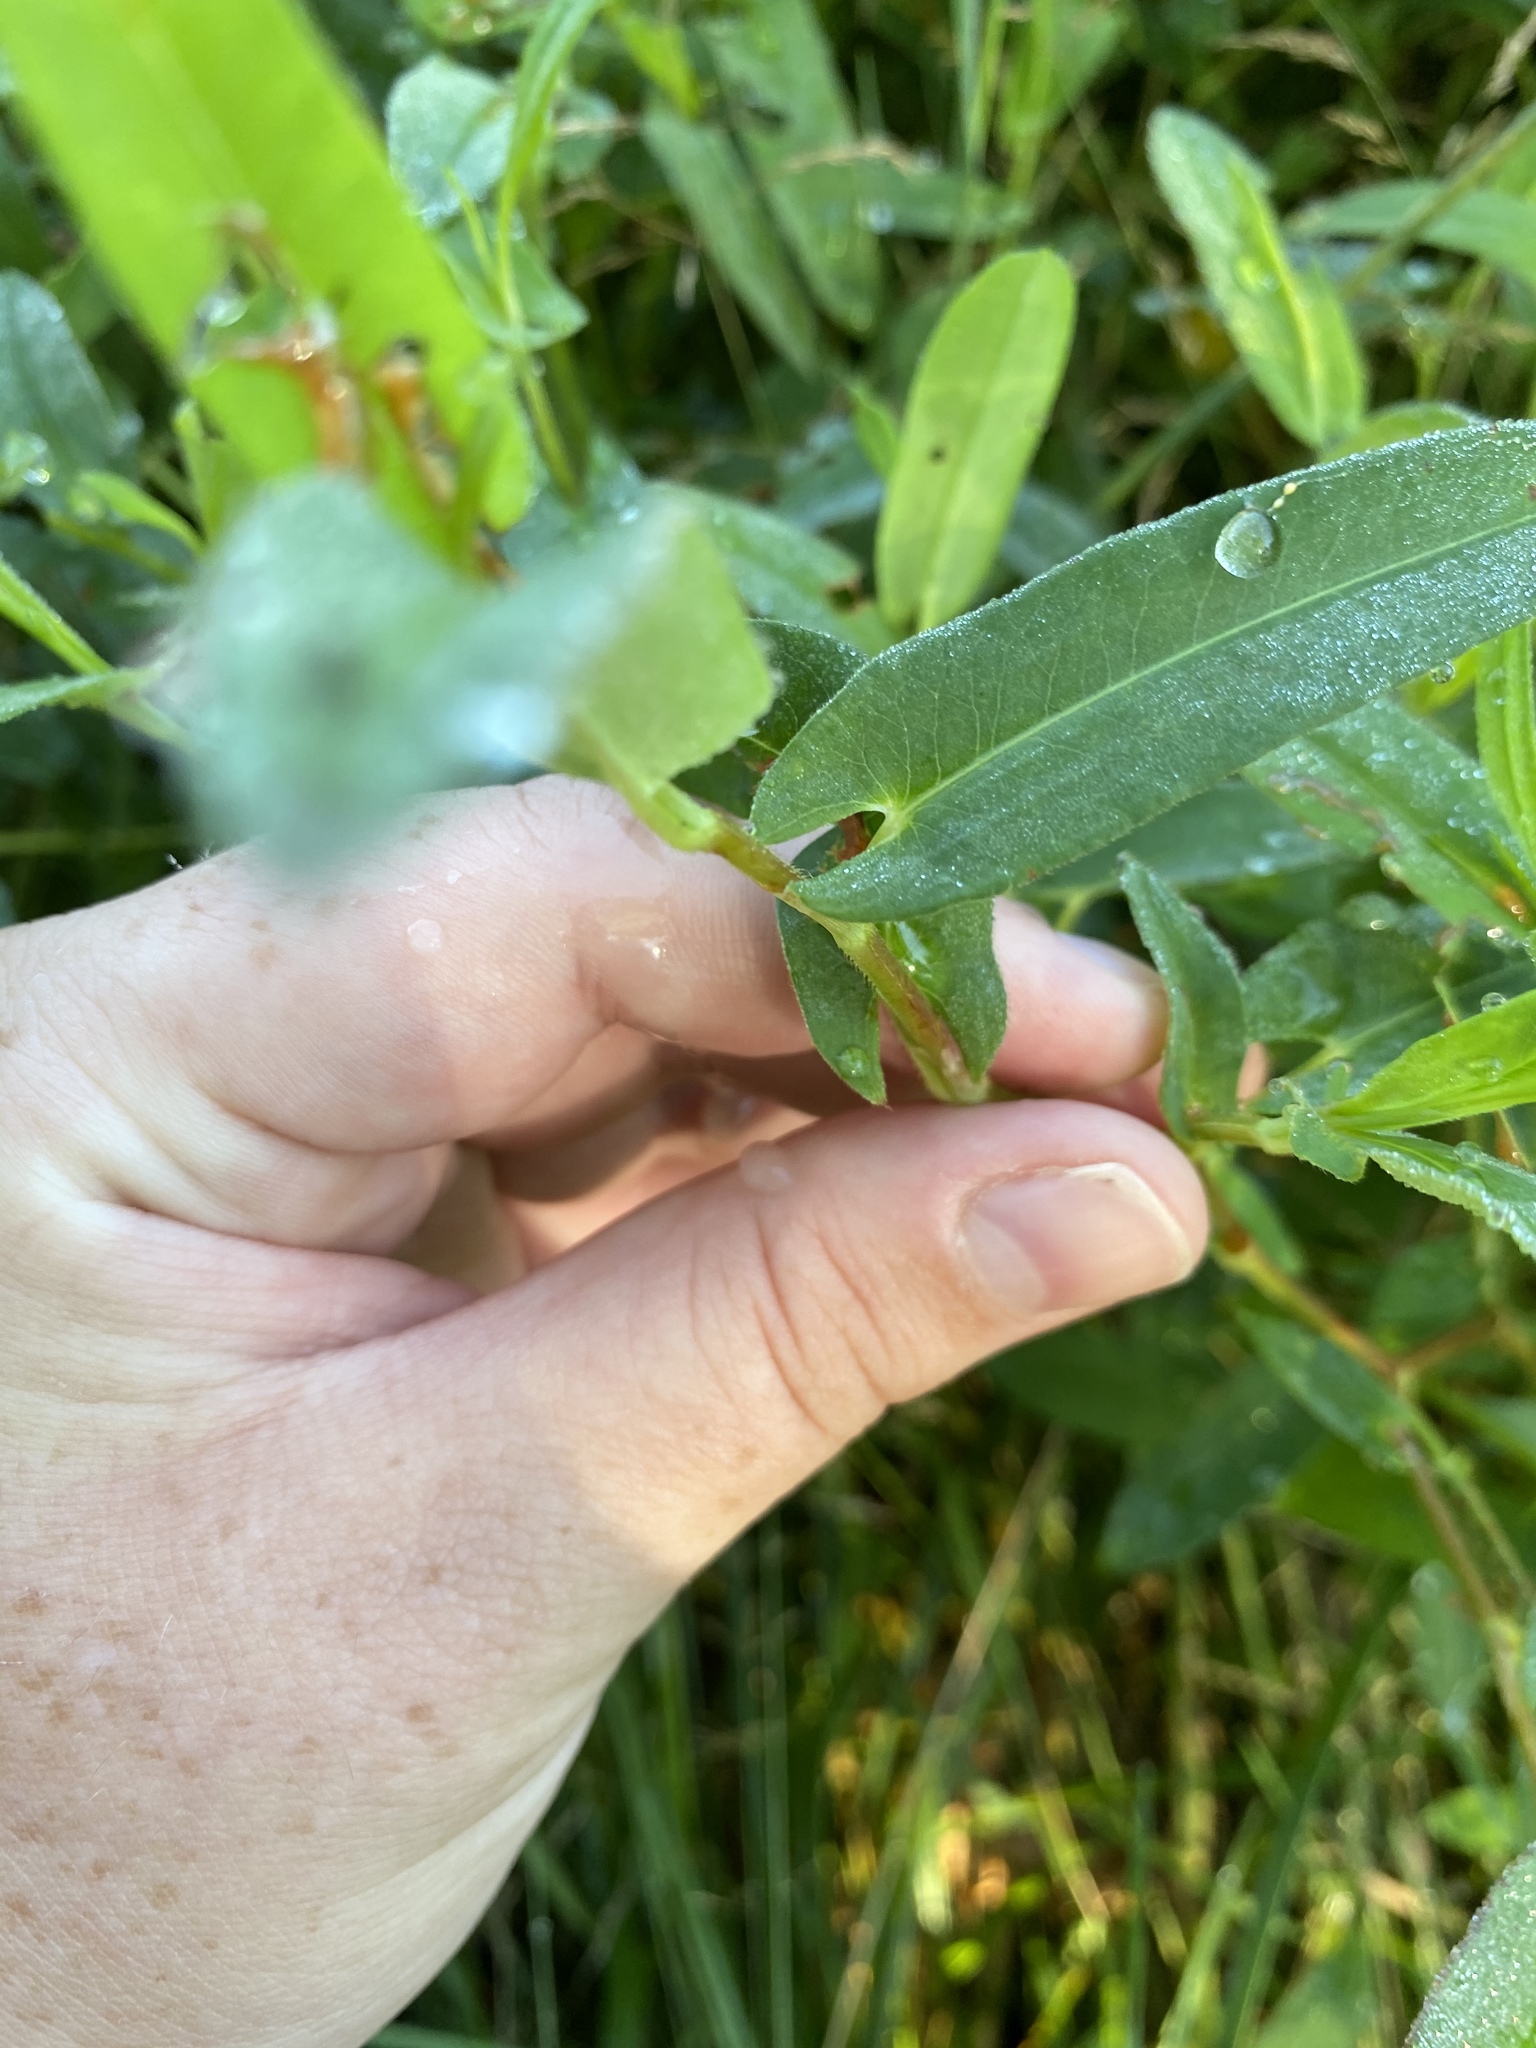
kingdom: Plantae
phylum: Tracheophyta
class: Magnoliopsida
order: Caryophyllales
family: Polygonaceae
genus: Persicaria
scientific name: Persicaria sagittata
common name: American tearthumb
